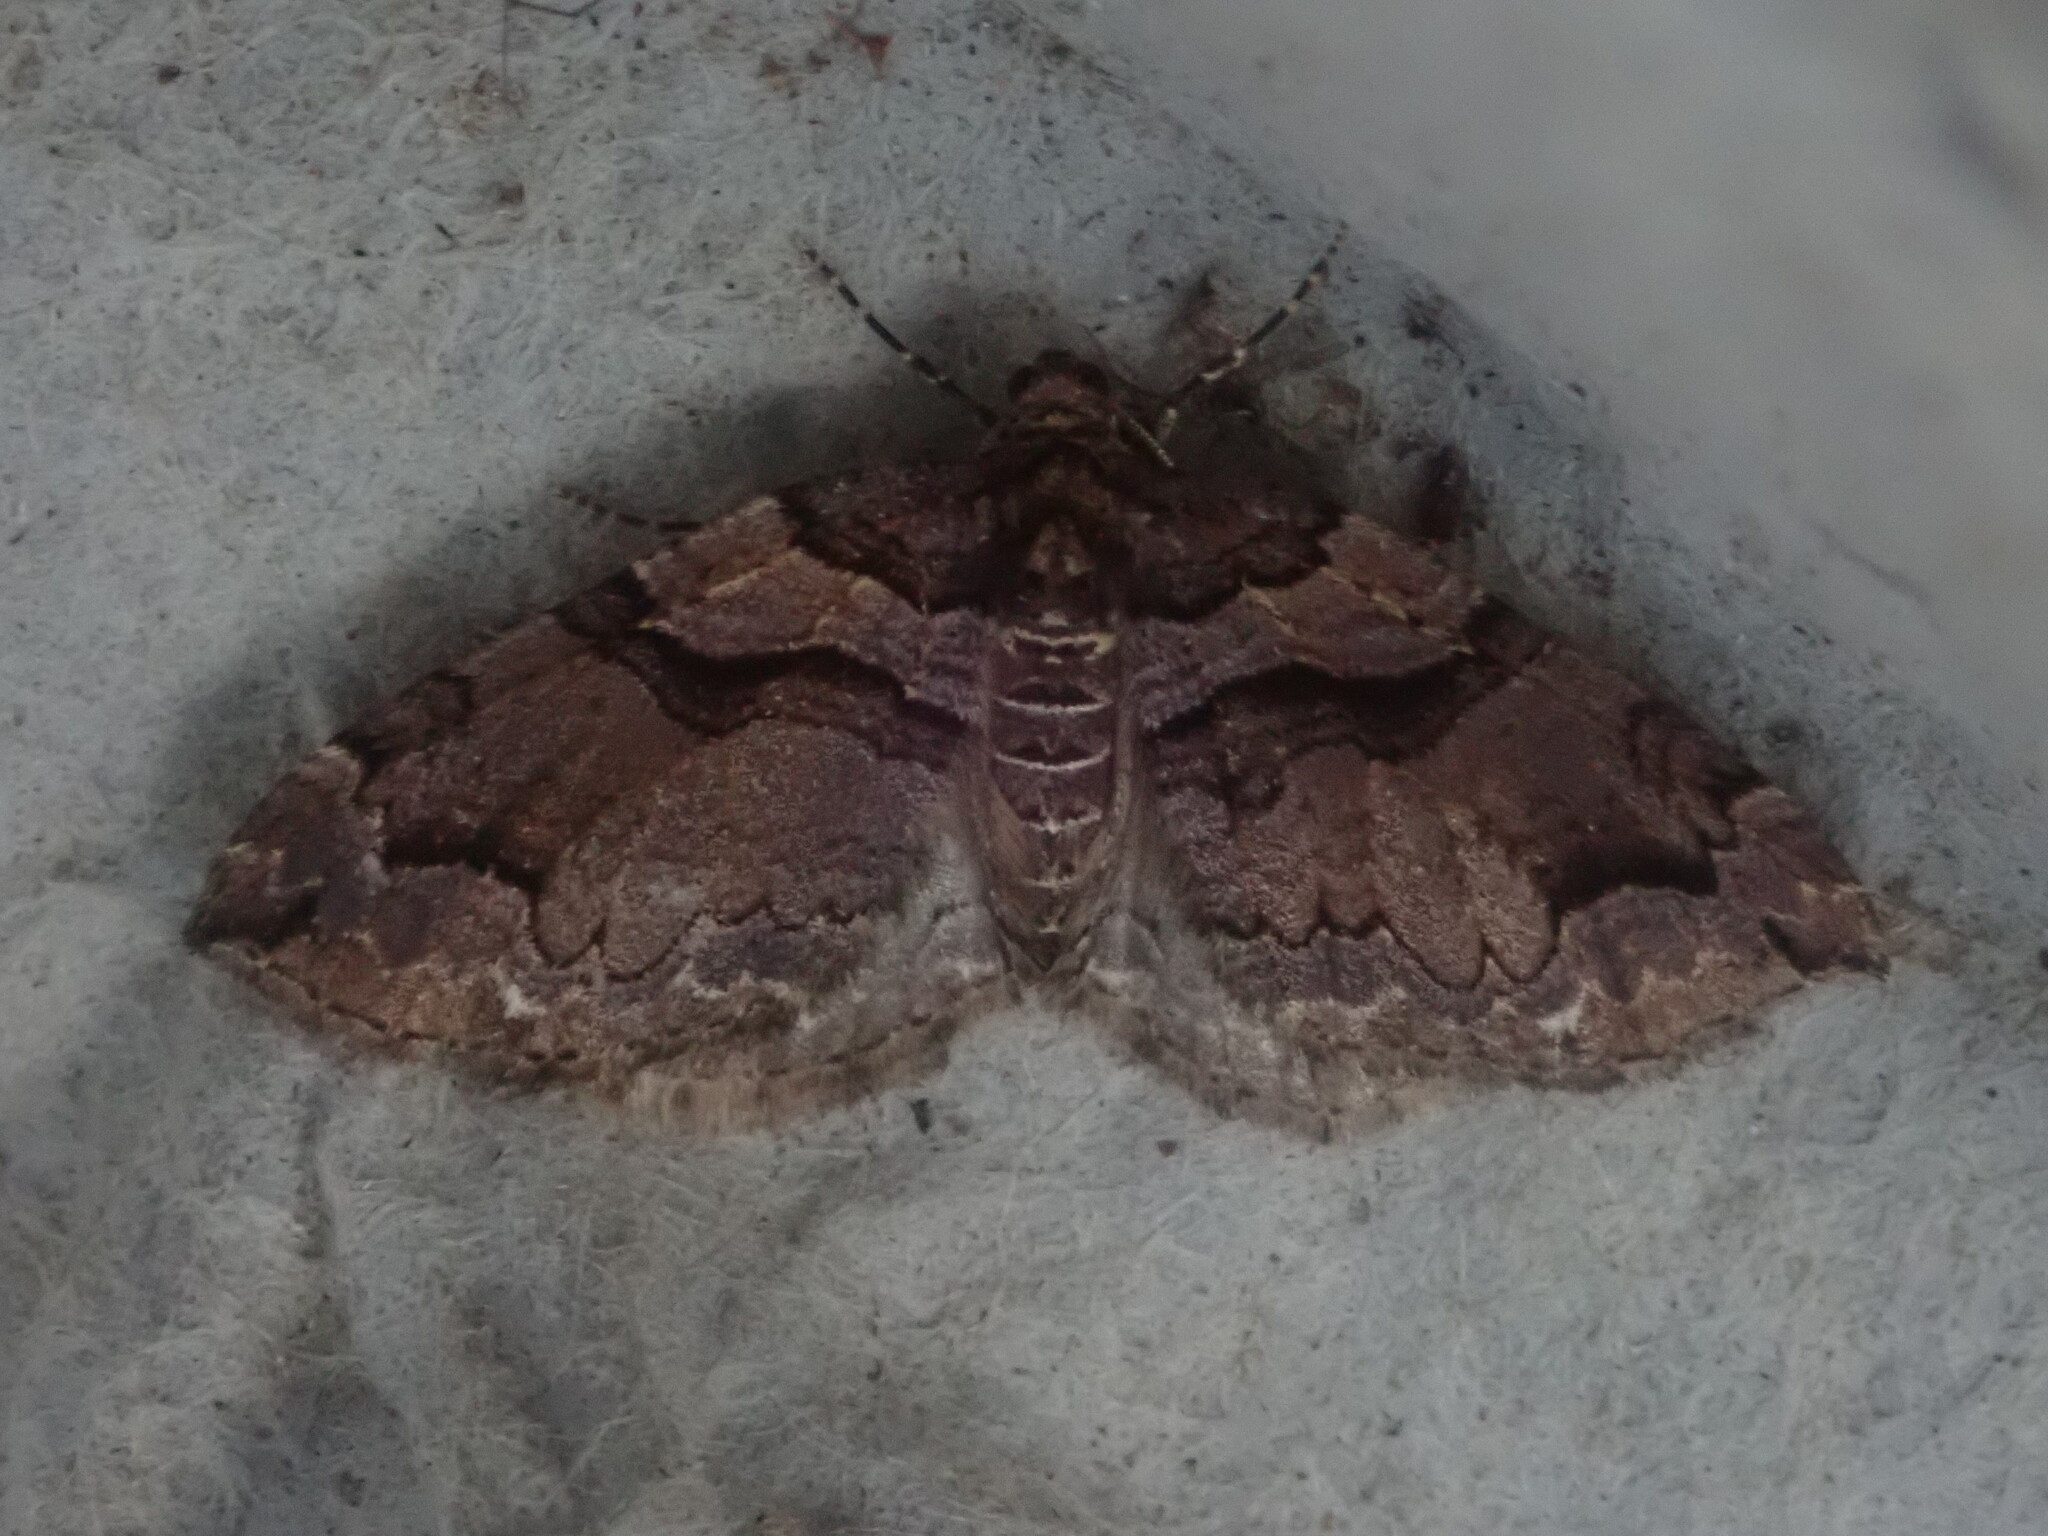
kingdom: Animalia
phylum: Arthropoda
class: Insecta
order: Lepidoptera
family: Geometridae
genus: Anticlea
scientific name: Anticlea vasiliata
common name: Variable carpet
